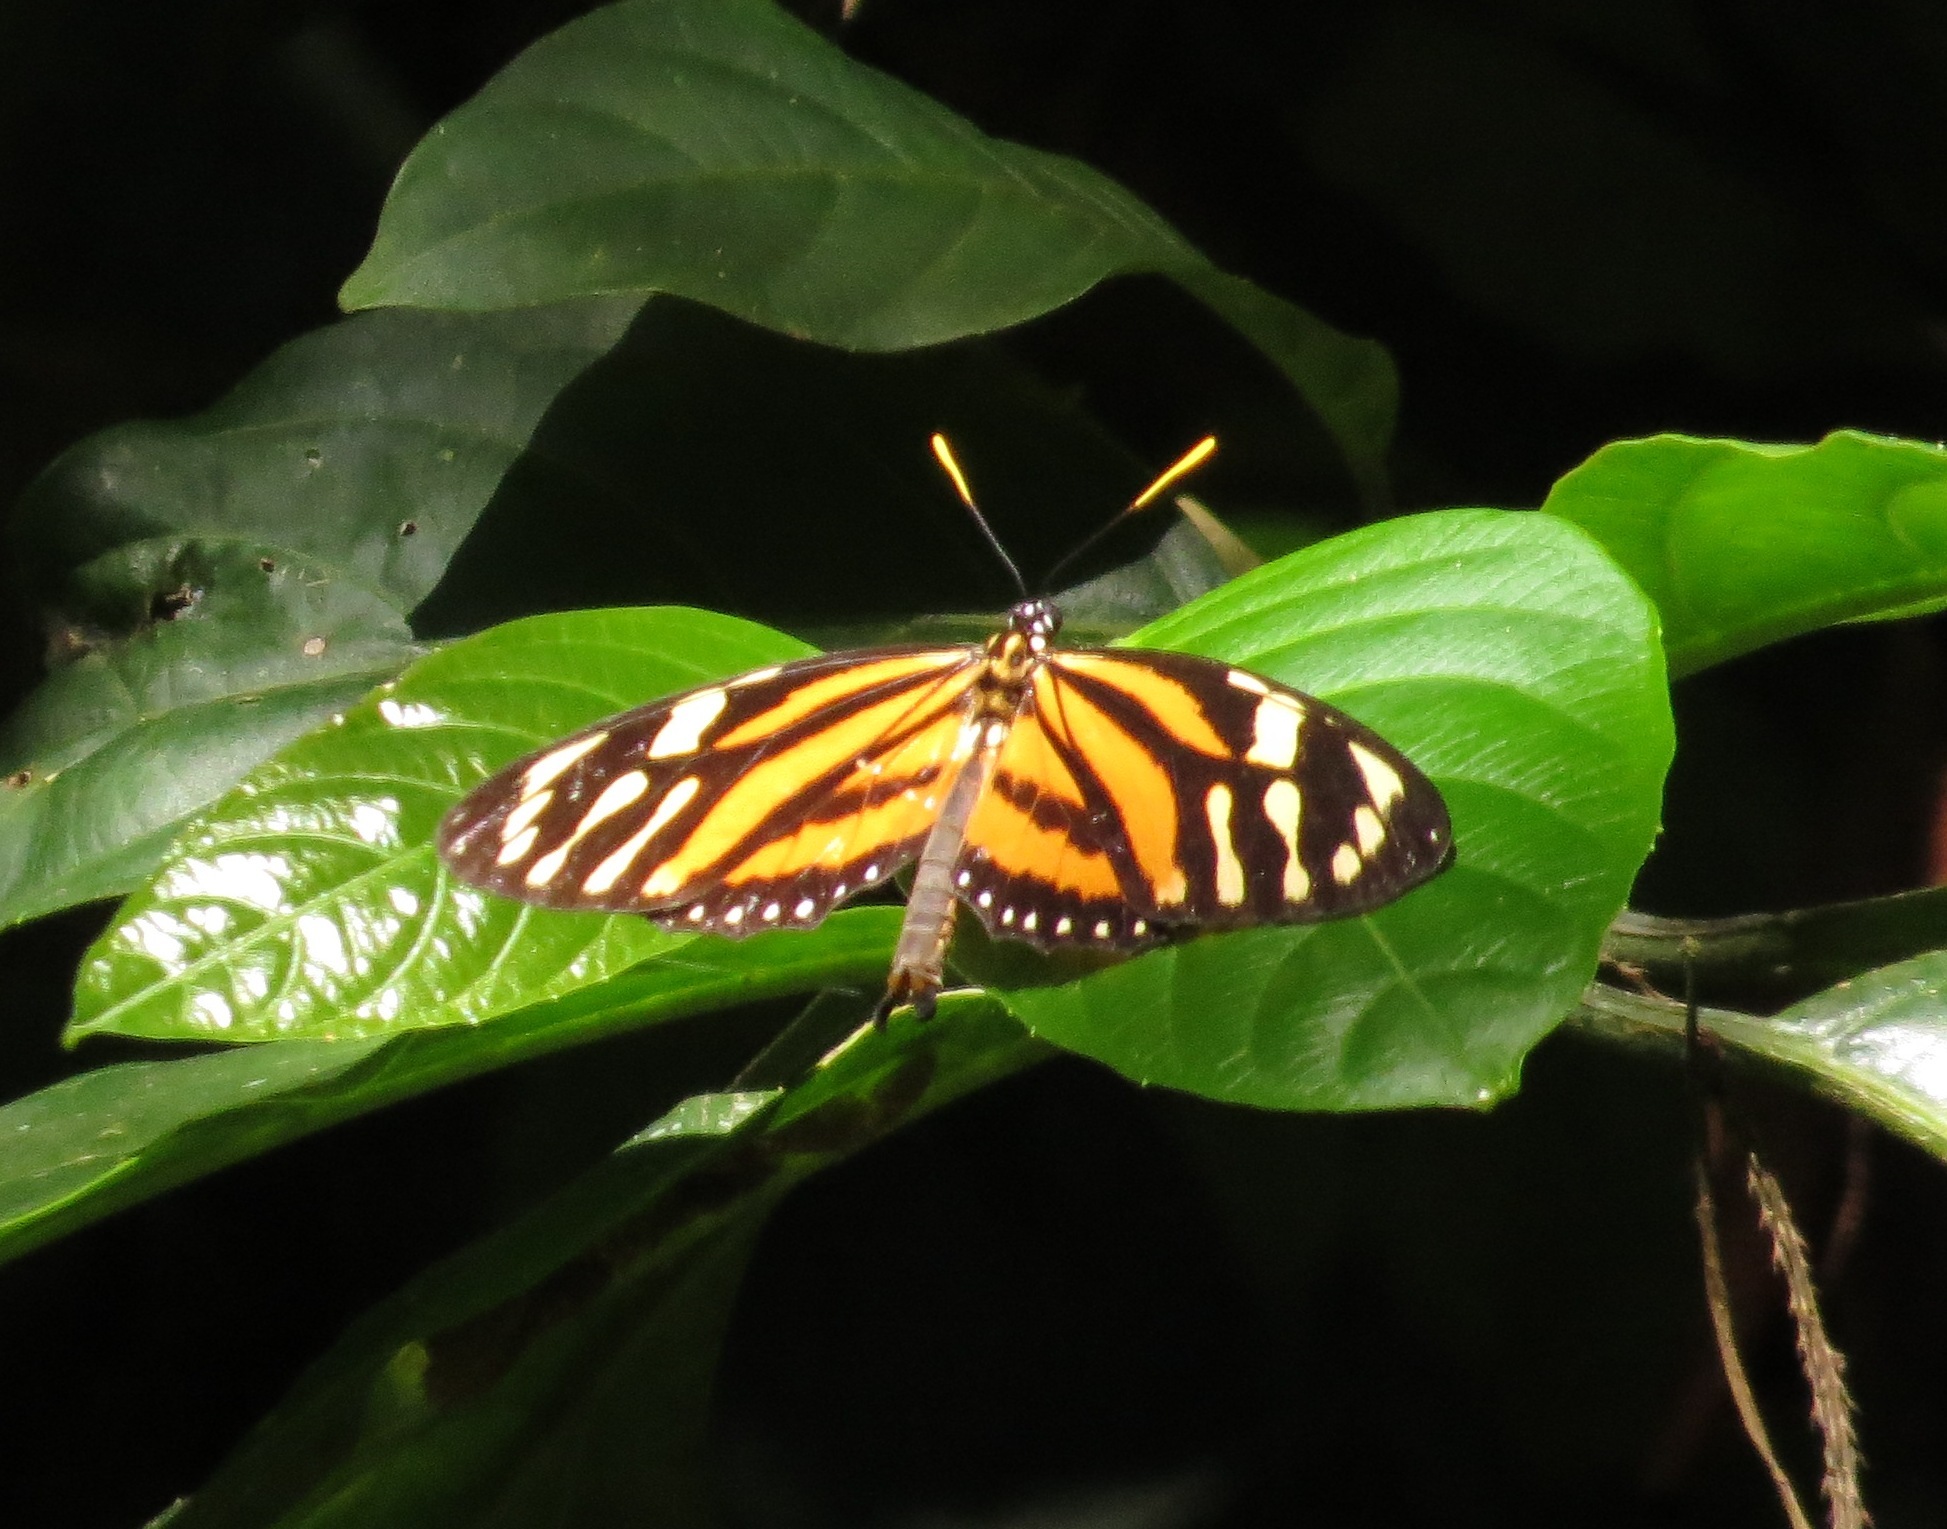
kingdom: Animalia
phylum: Arthropoda
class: Insecta
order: Lepidoptera
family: Nymphalidae
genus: Lycorea
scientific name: Lycorea cleobaea
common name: Tiger mimic-queen
